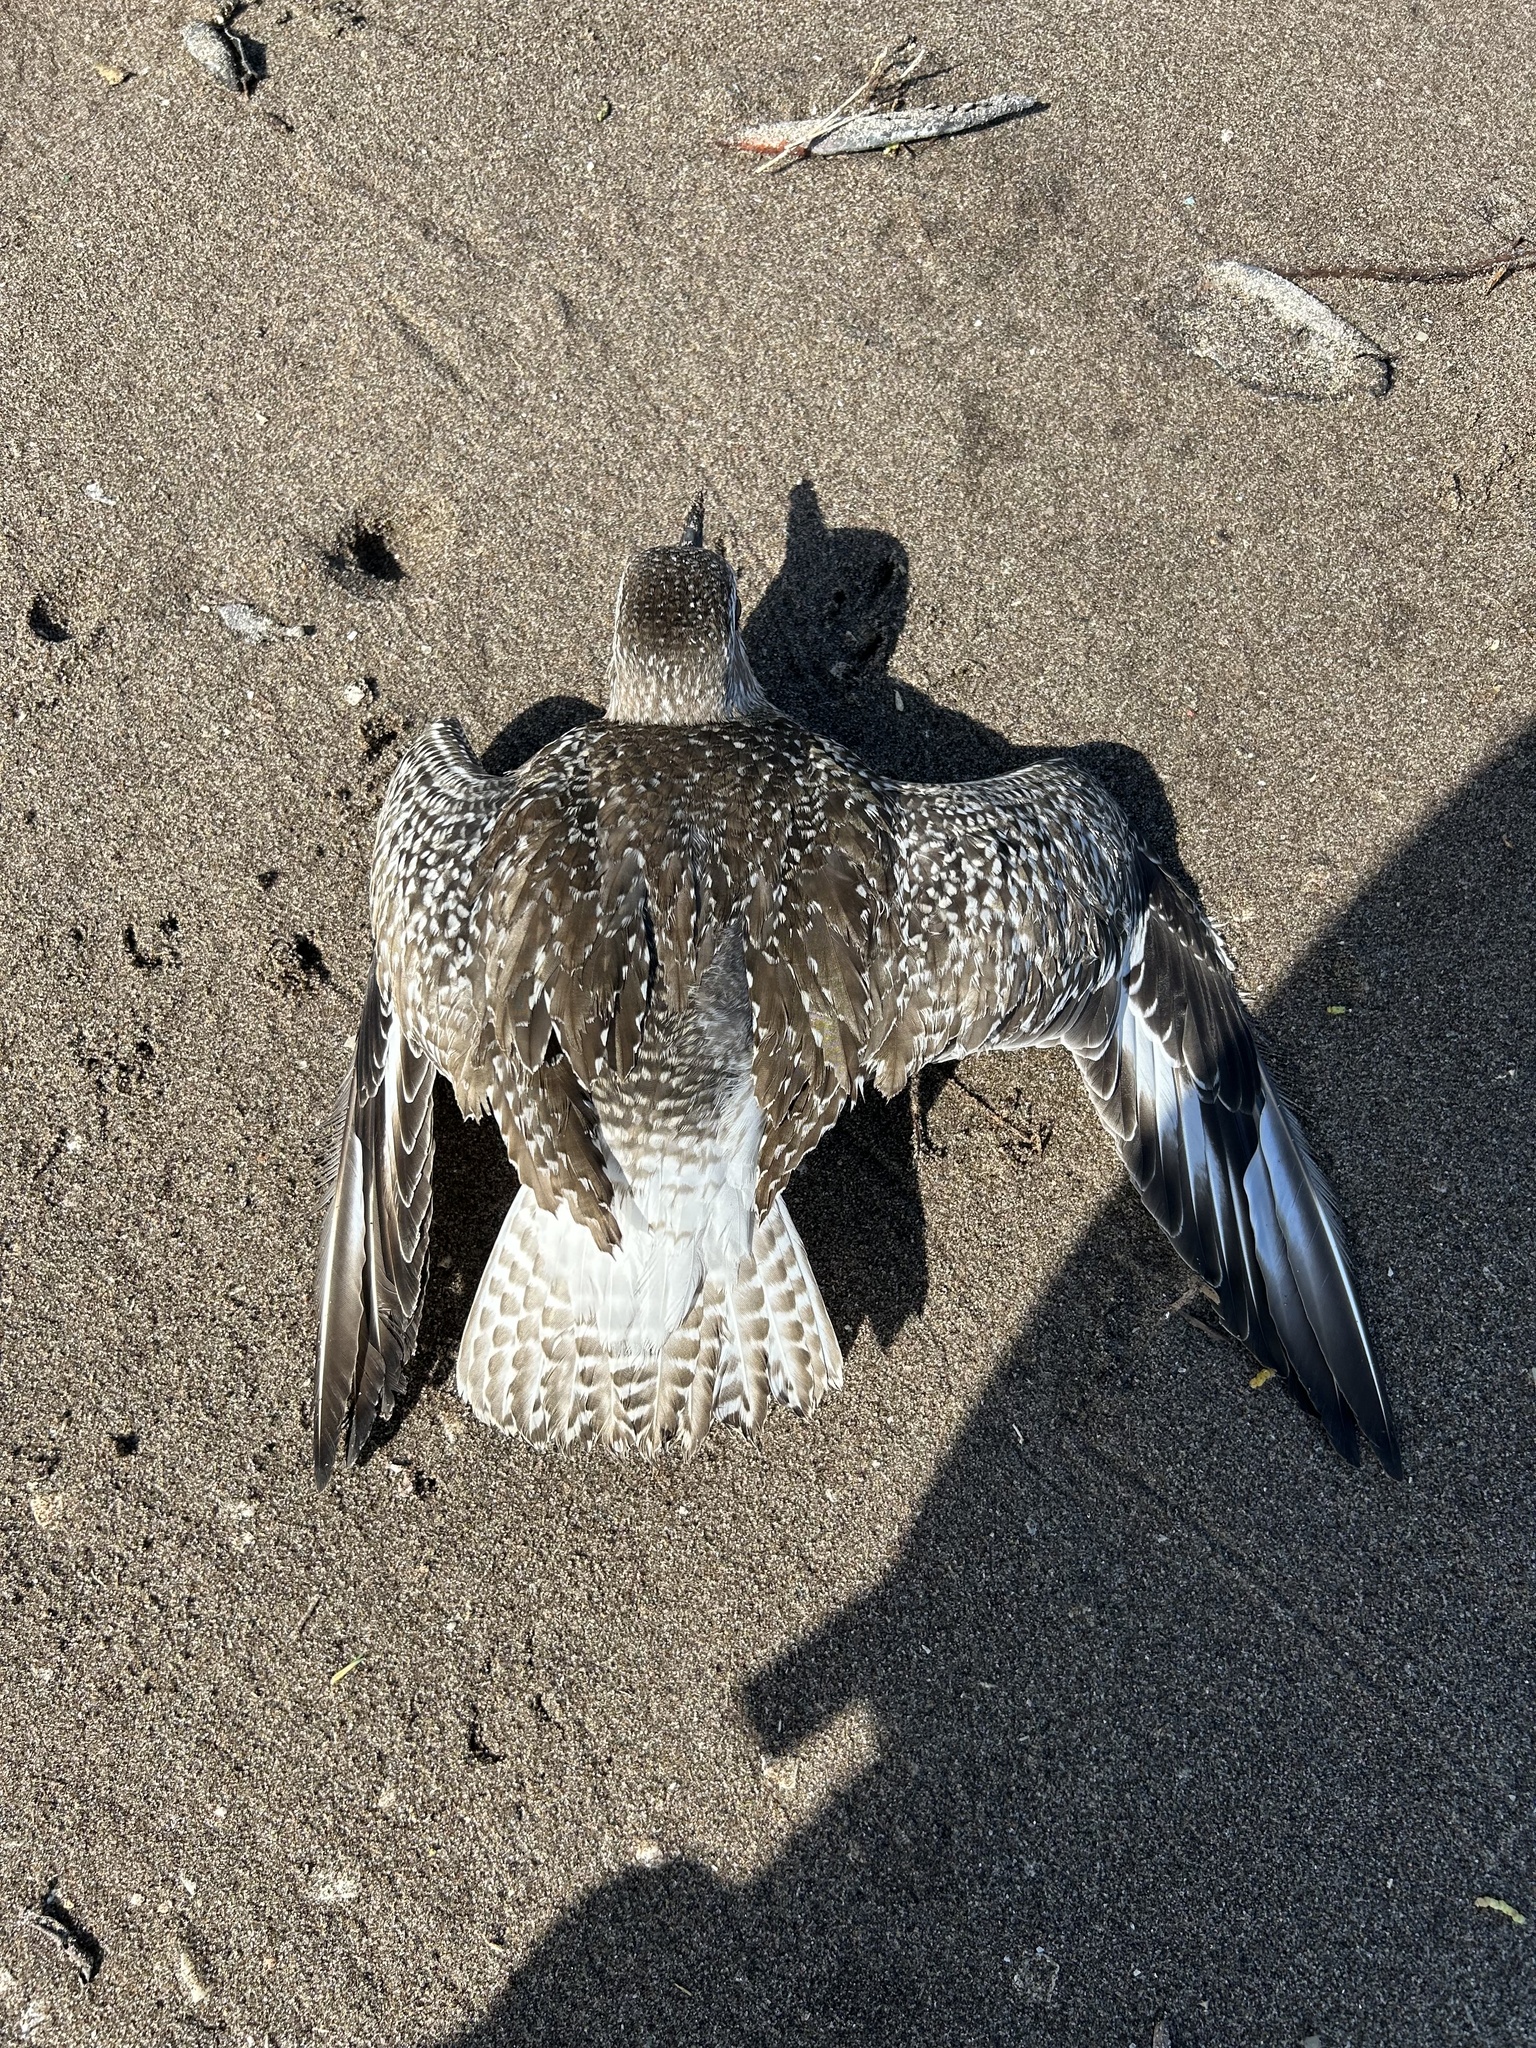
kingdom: Animalia
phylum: Chordata
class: Aves
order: Charadriiformes
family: Charadriidae
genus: Pluvialis
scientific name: Pluvialis squatarola
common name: Grey plover
